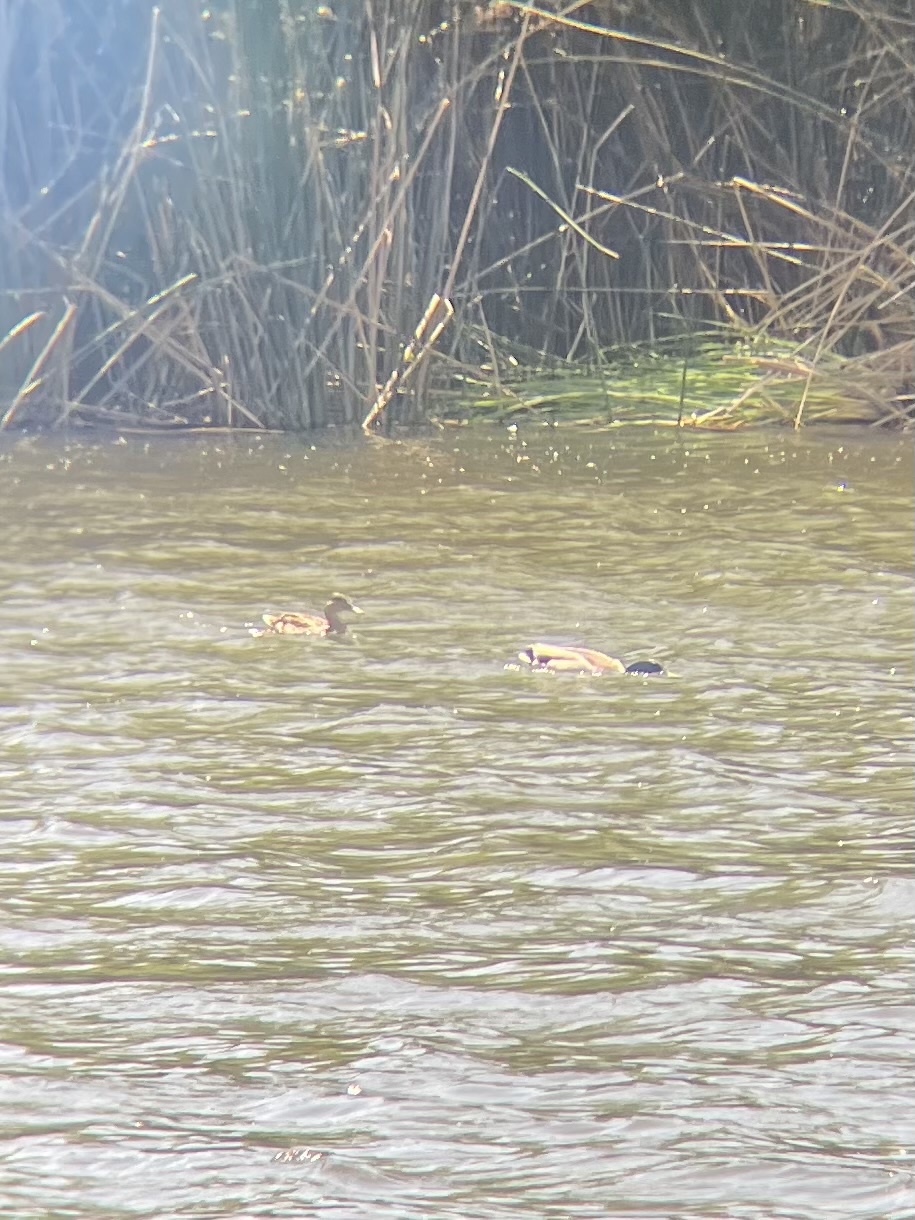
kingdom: Animalia
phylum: Chordata
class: Aves
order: Anseriformes
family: Anatidae
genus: Anas
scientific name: Anas platyrhynchos
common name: Mallard
